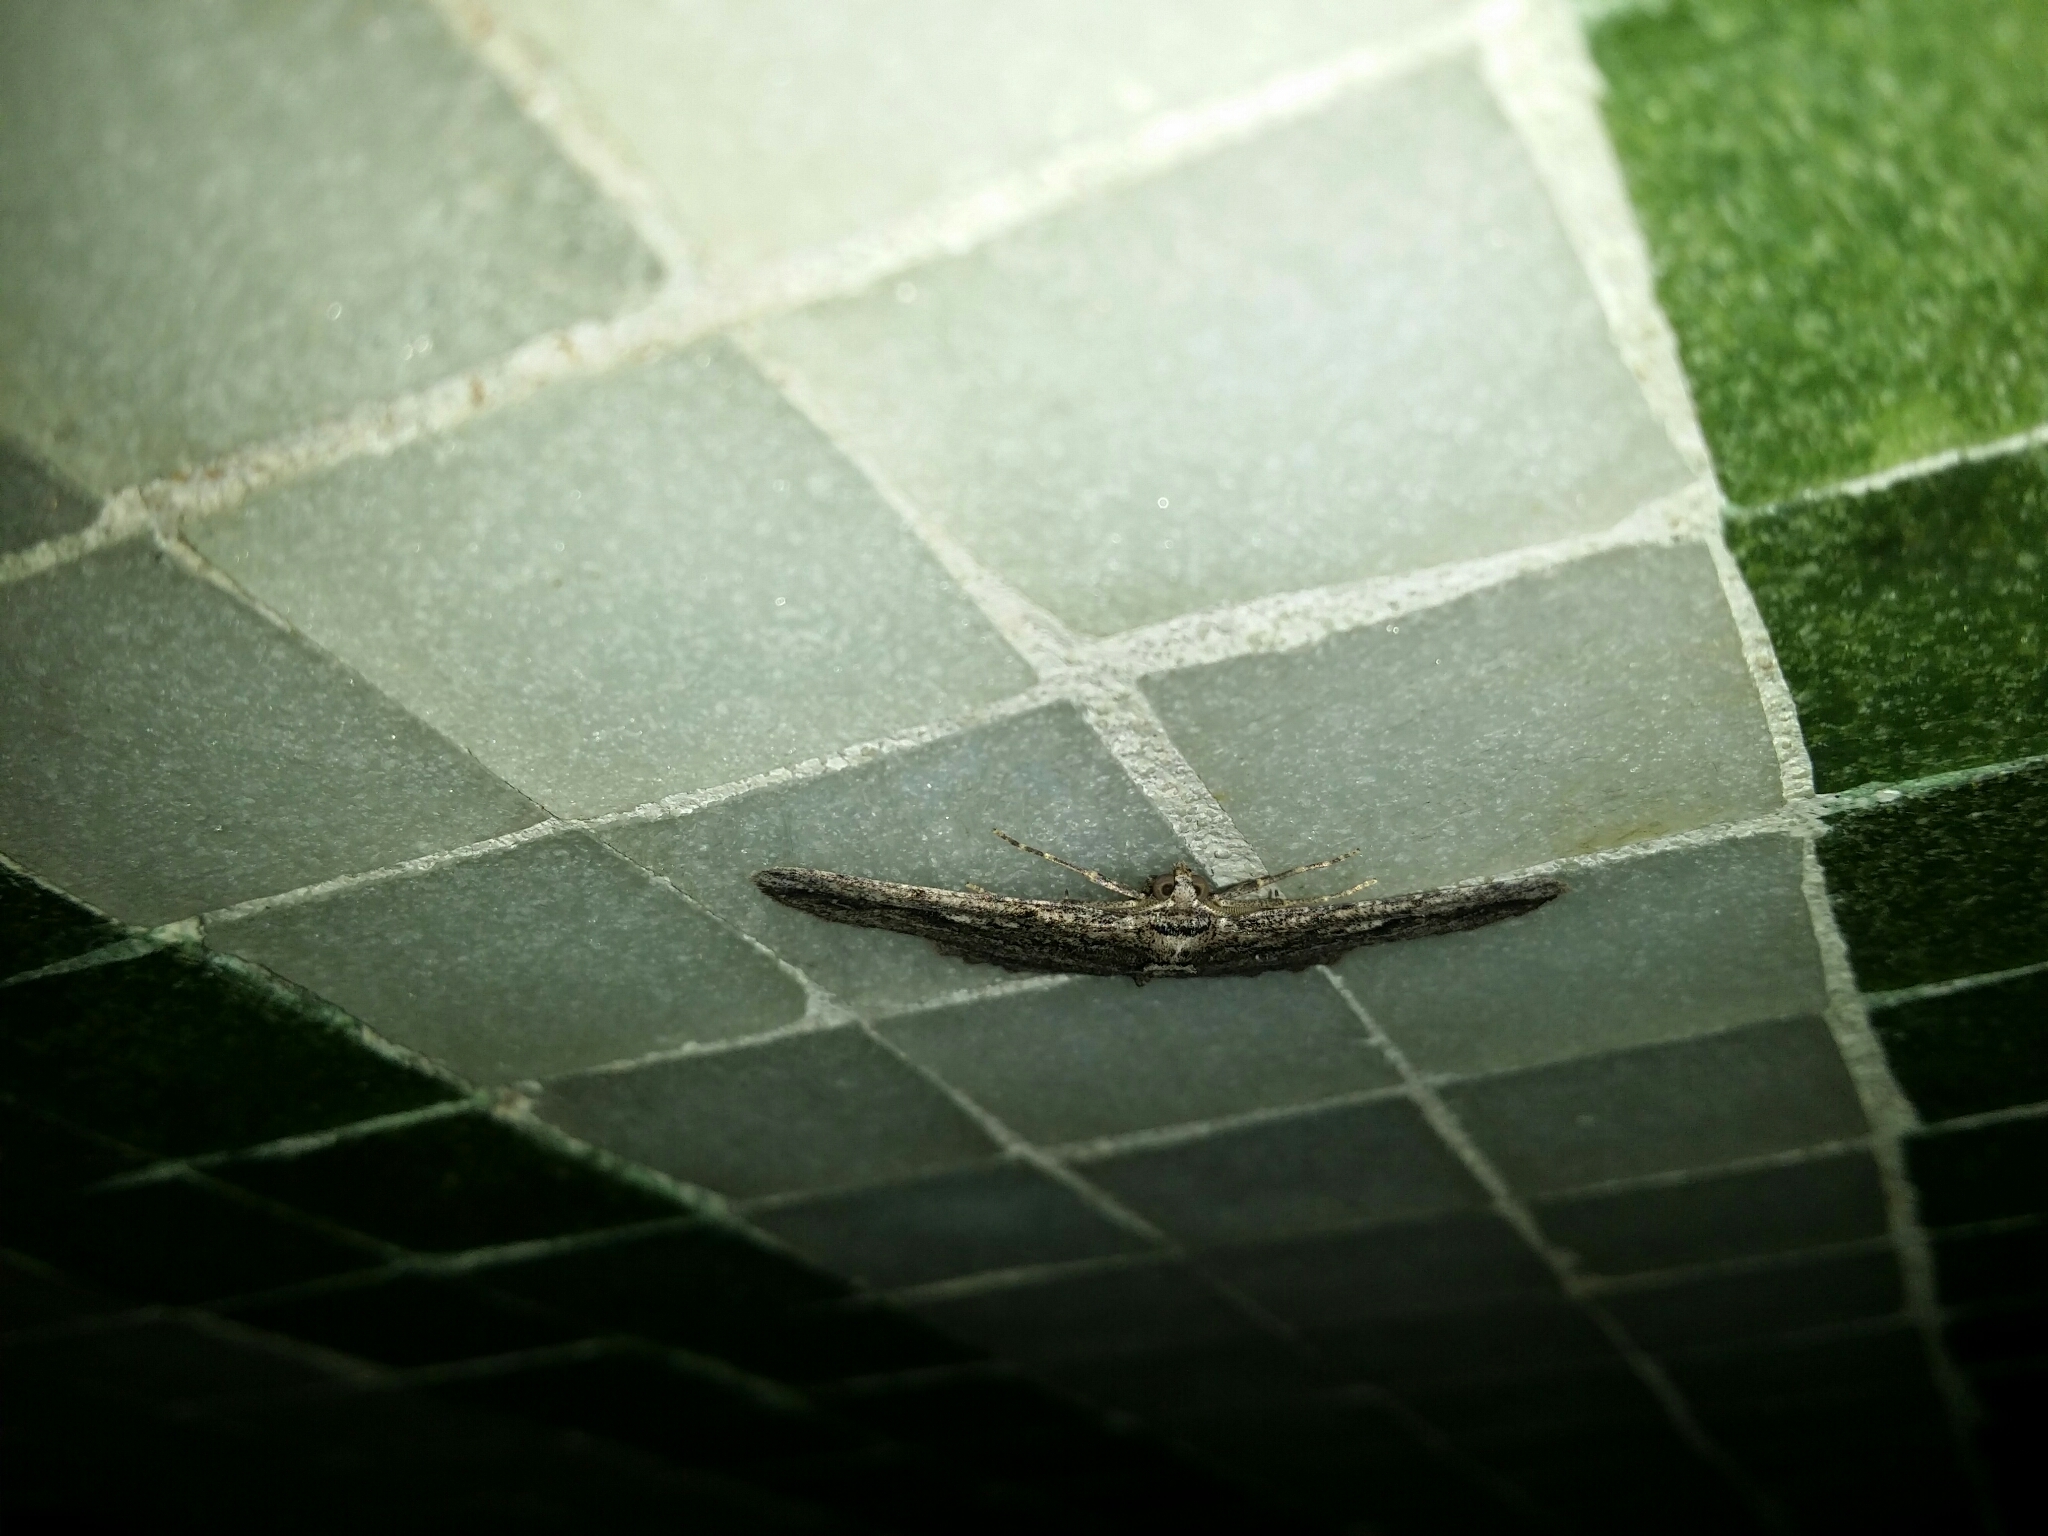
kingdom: Animalia
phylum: Arthropoda
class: Insecta
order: Lepidoptera
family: Geometridae
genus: Syneora
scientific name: Syneora nigrilinea
